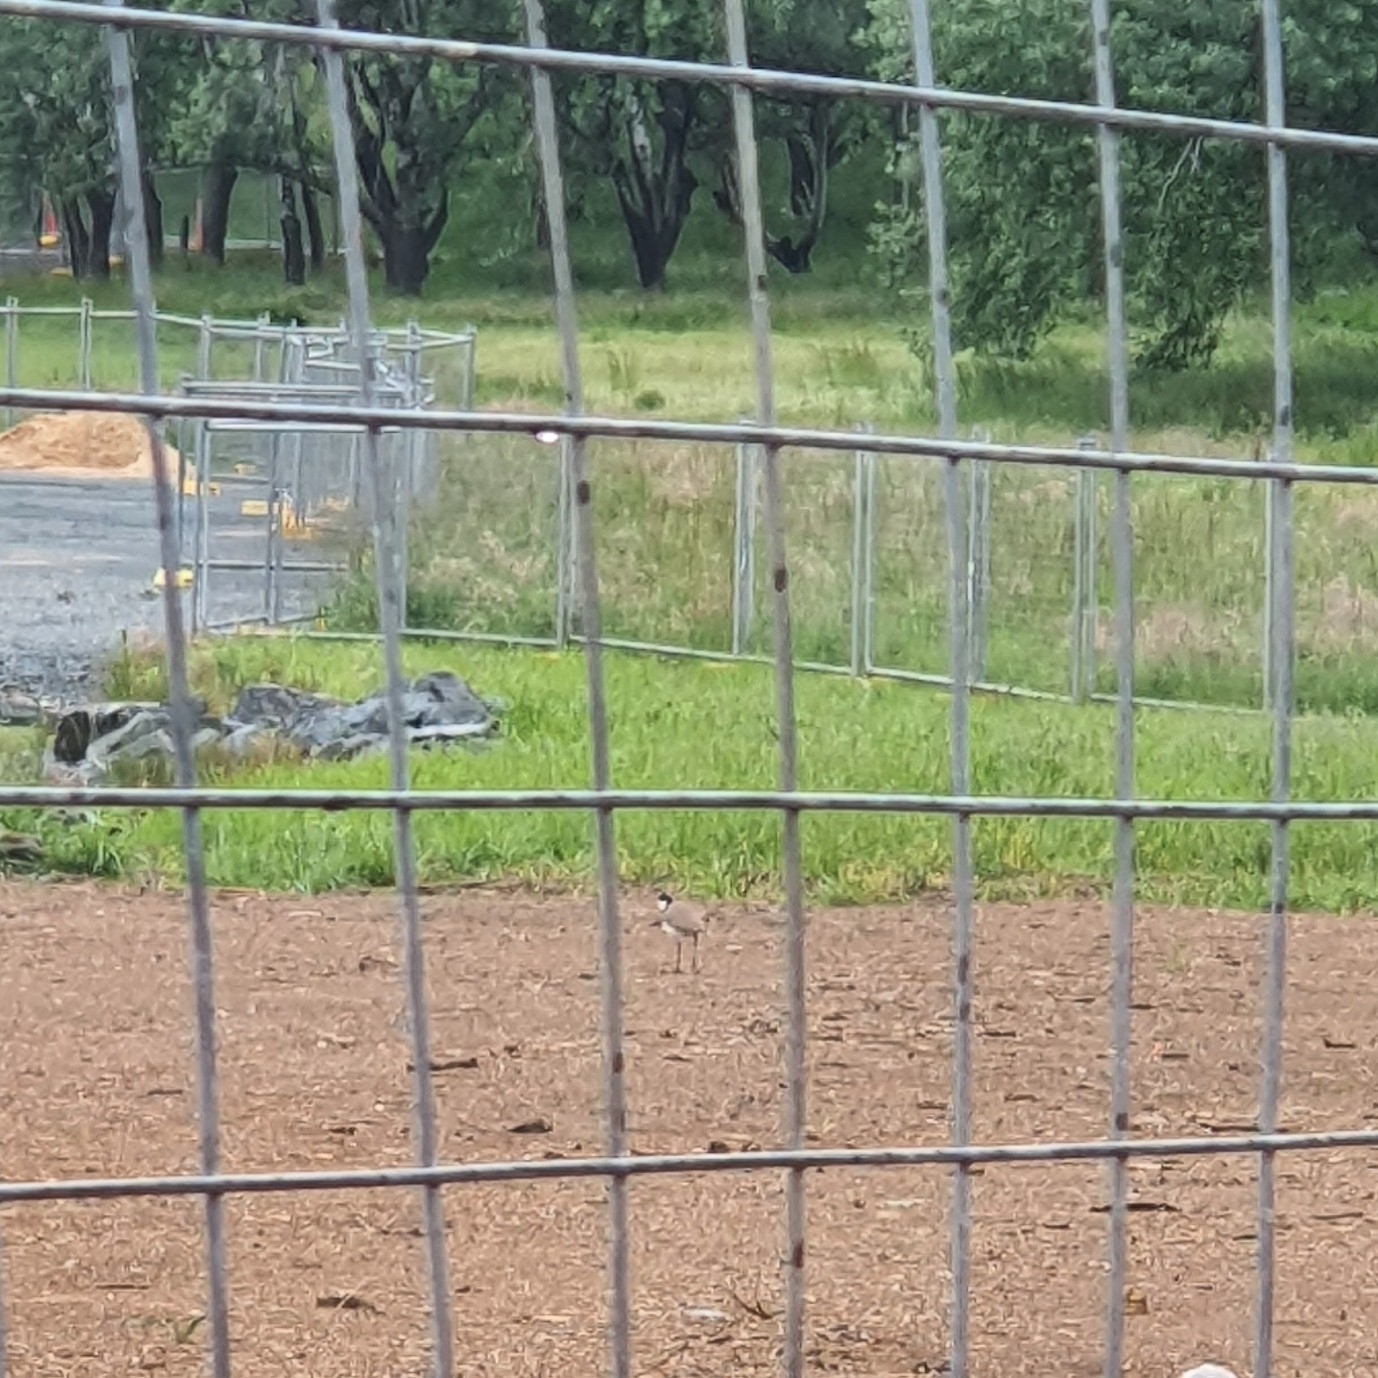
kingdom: Animalia
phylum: Chordata
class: Aves
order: Charadriiformes
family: Charadriidae
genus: Vanellus
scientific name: Vanellus miles
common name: Masked lapwing
